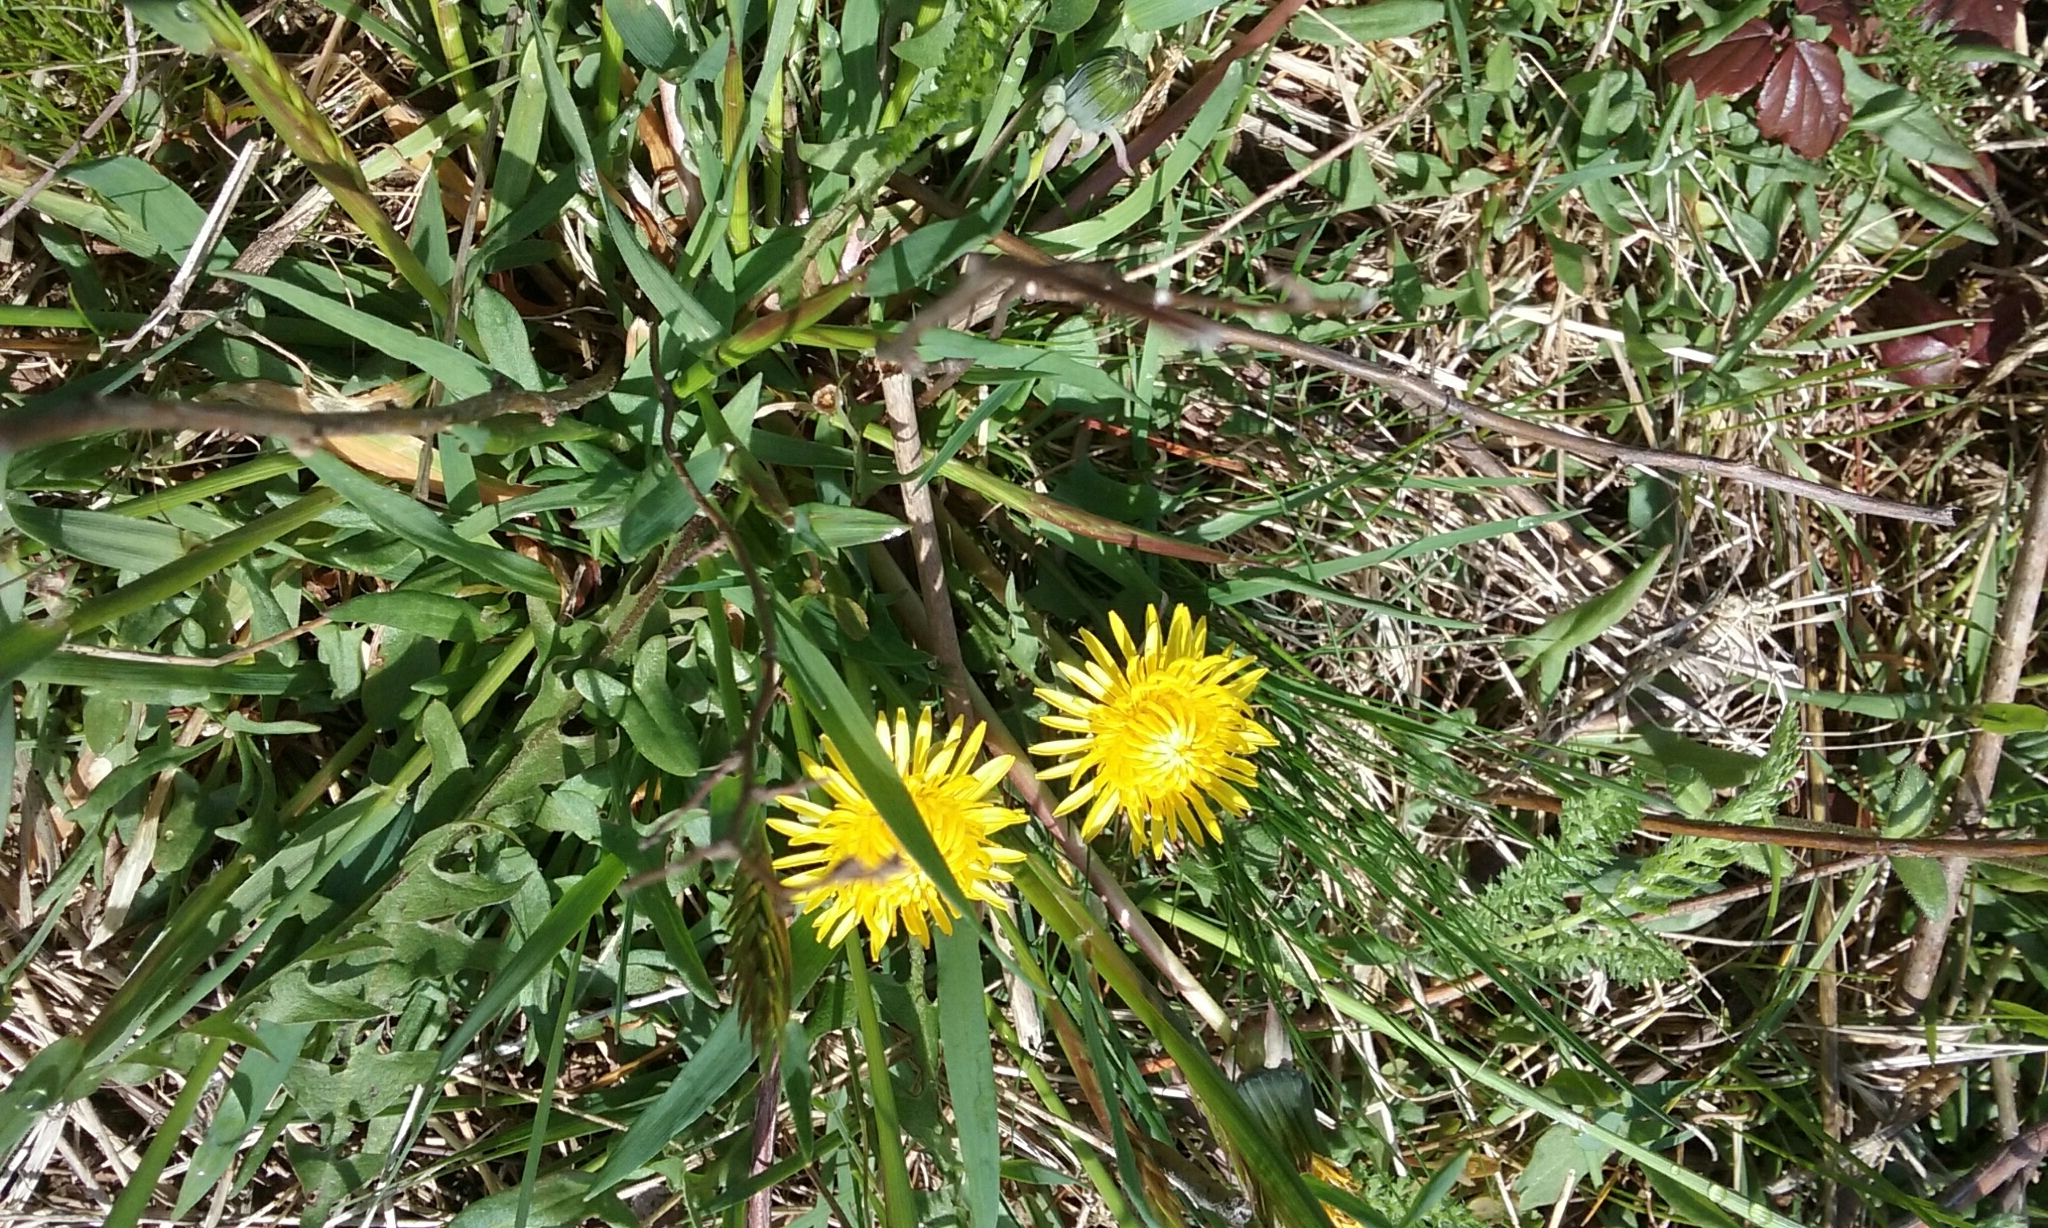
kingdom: Plantae
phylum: Tracheophyta
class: Magnoliopsida
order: Asterales
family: Asteraceae
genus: Taraxacum
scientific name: Taraxacum officinale
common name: Common dandelion
